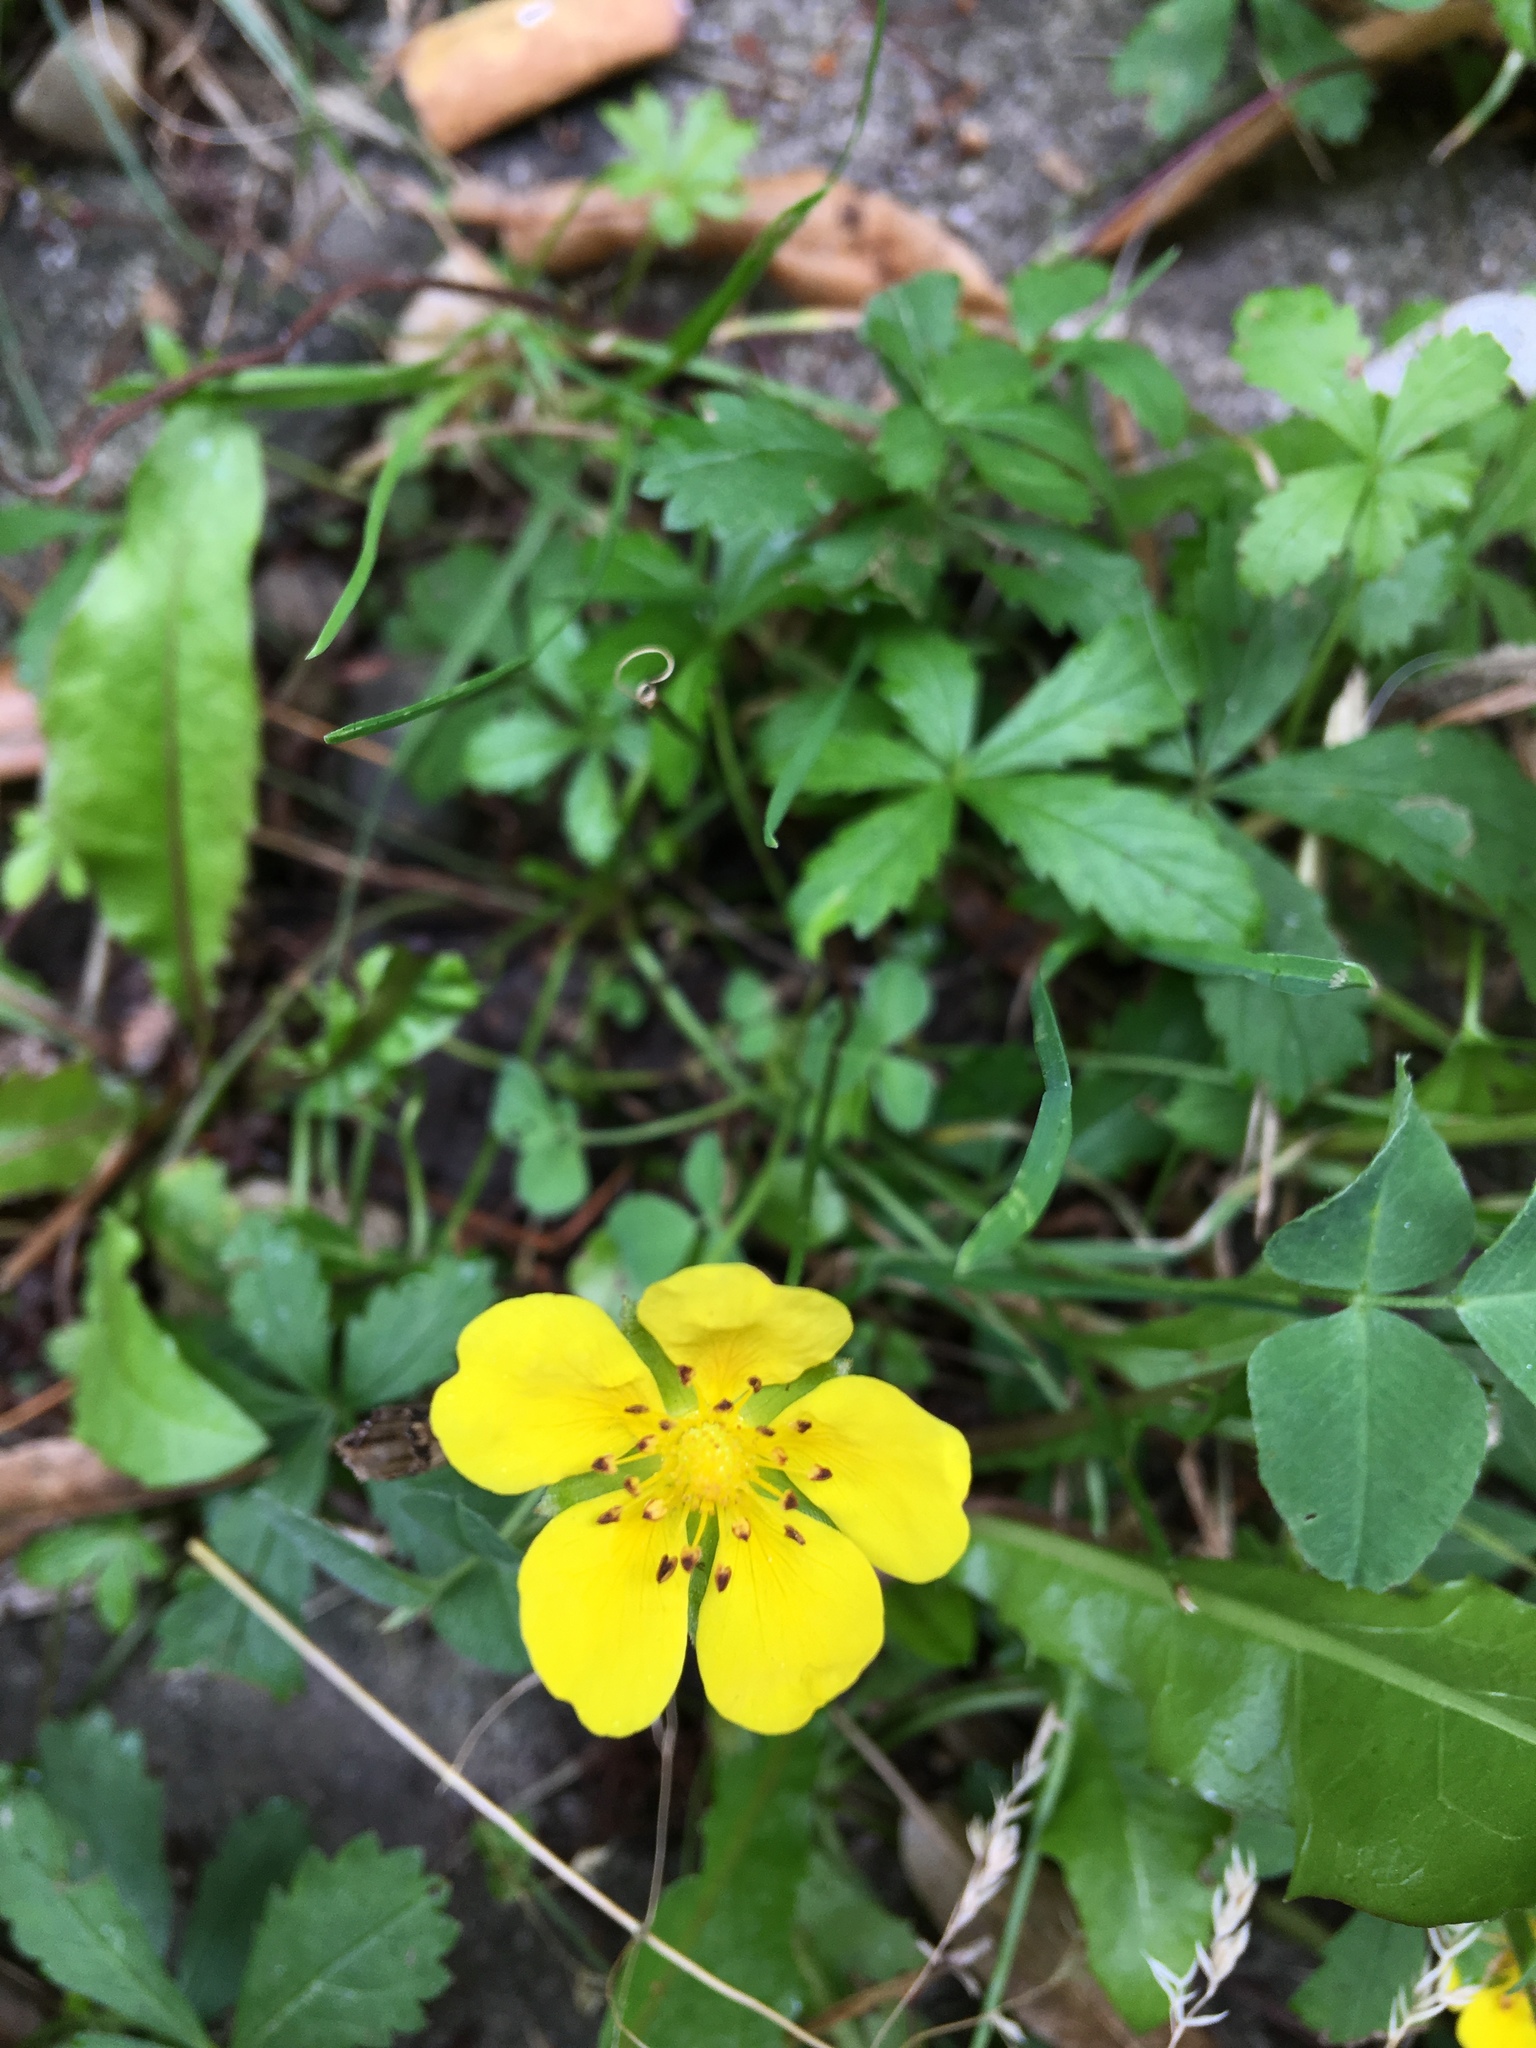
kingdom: Plantae
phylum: Tracheophyta
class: Magnoliopsida
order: Rosales
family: Rosaceae
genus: Potentilla
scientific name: Potentilla reptans
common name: Creeping cinquefoil
